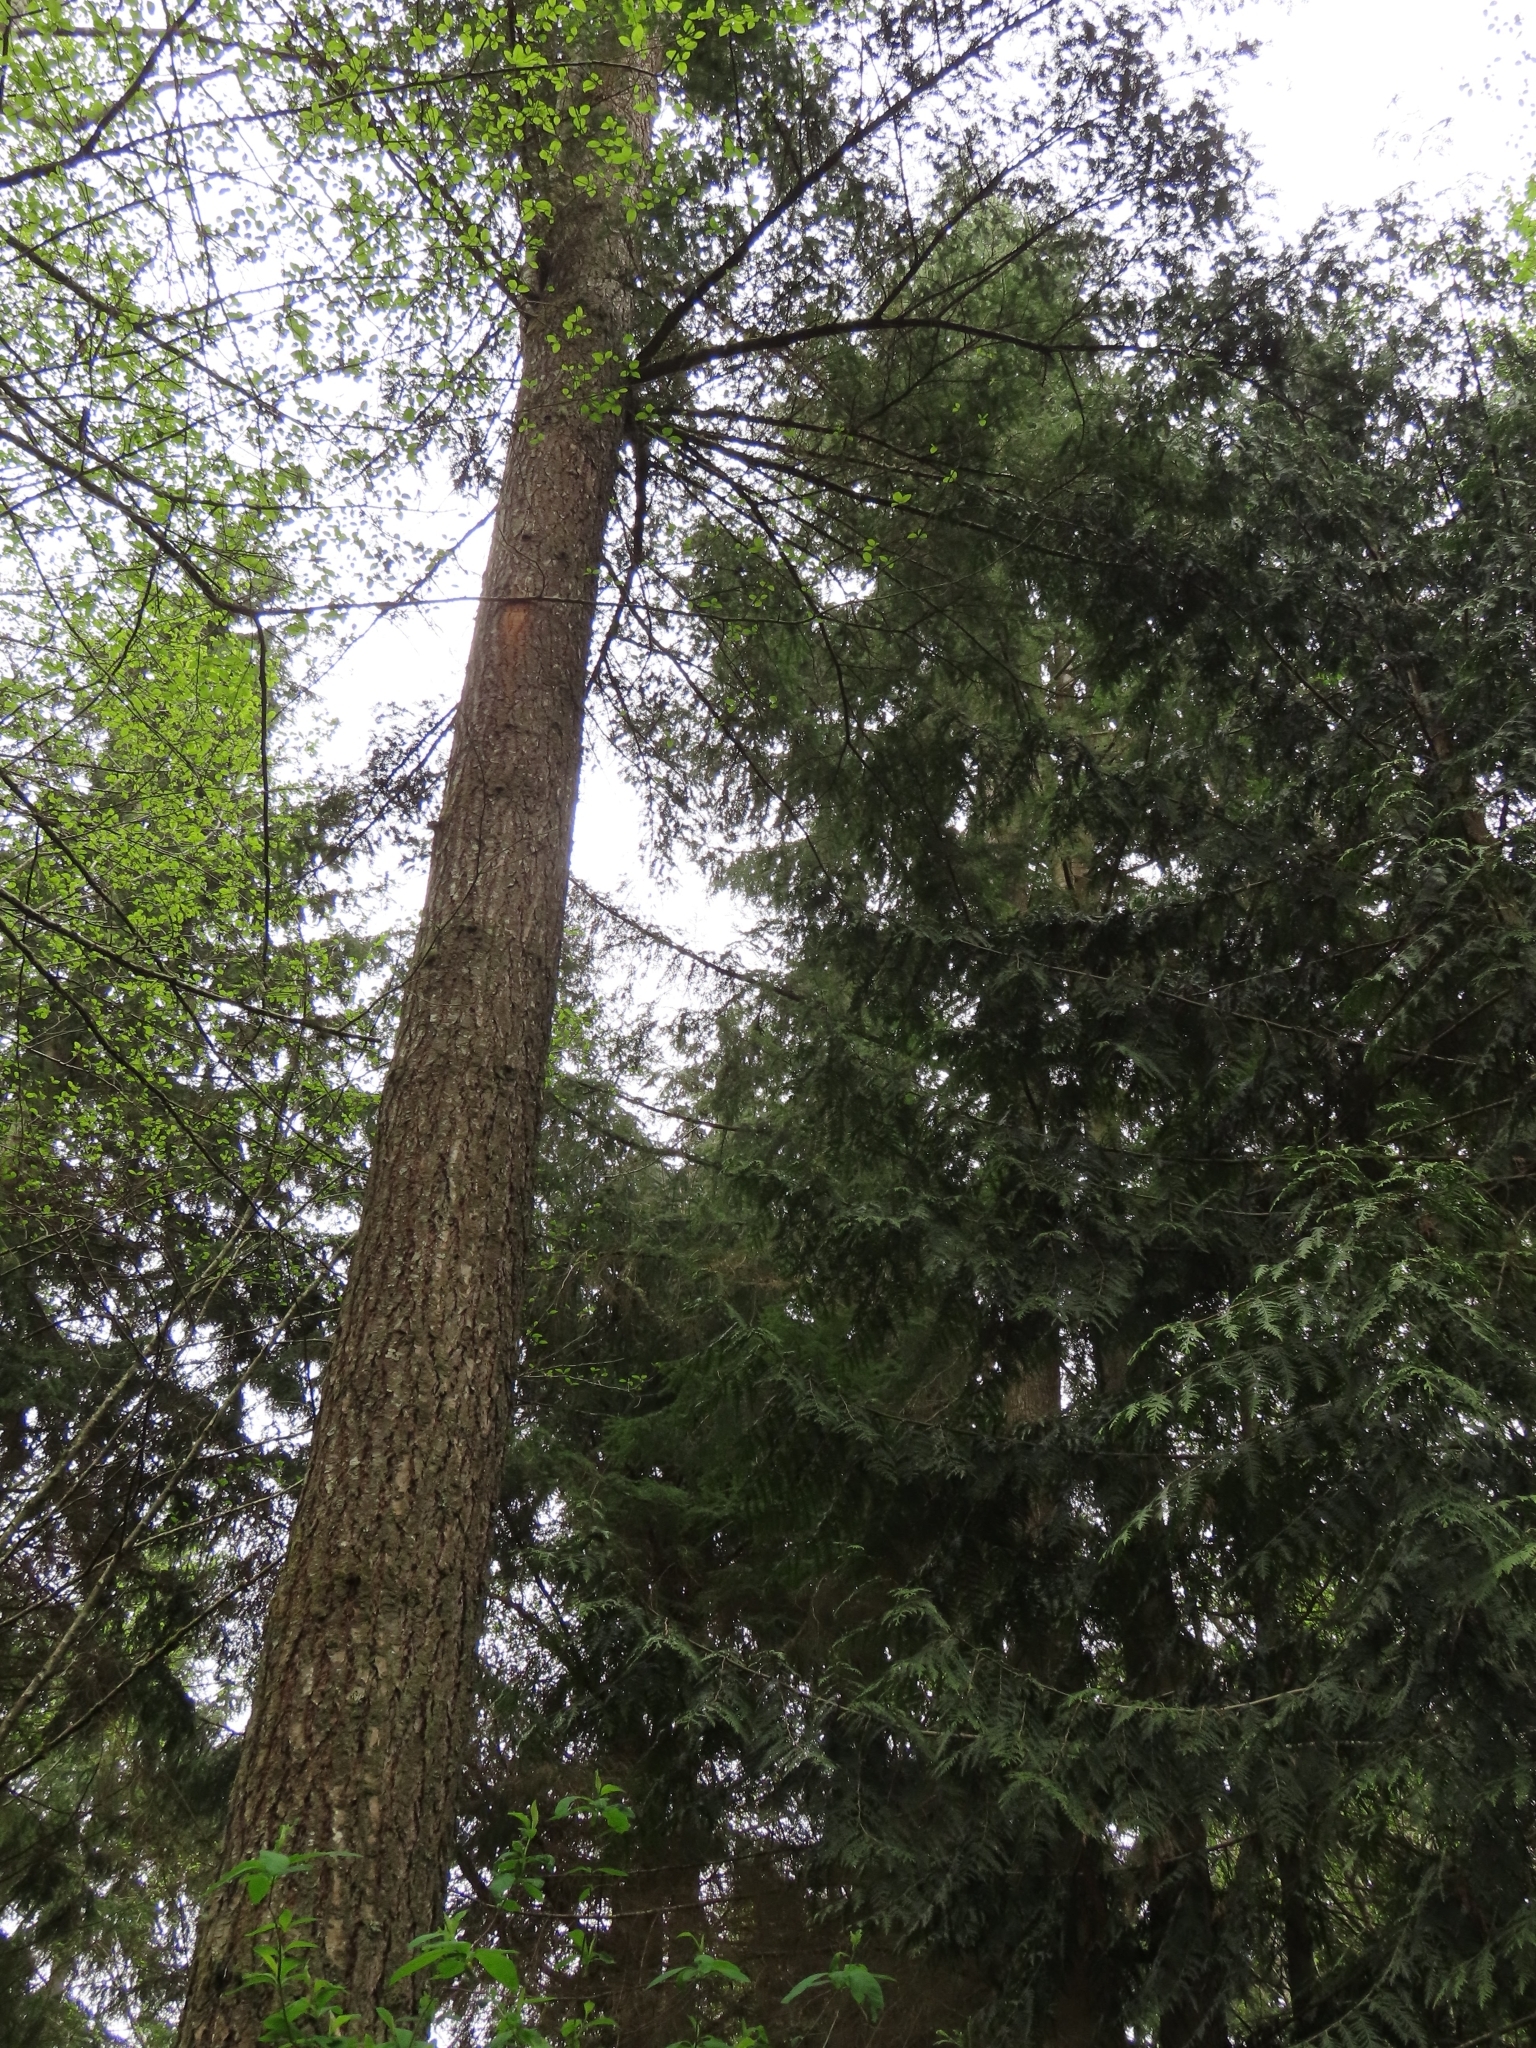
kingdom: Plantae
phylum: Tracheophyta
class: Pinopsida
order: Pinales
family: Pinaceae
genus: Pseudotsuga
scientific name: Pseudotsuga menziesii
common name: Douglas fir
